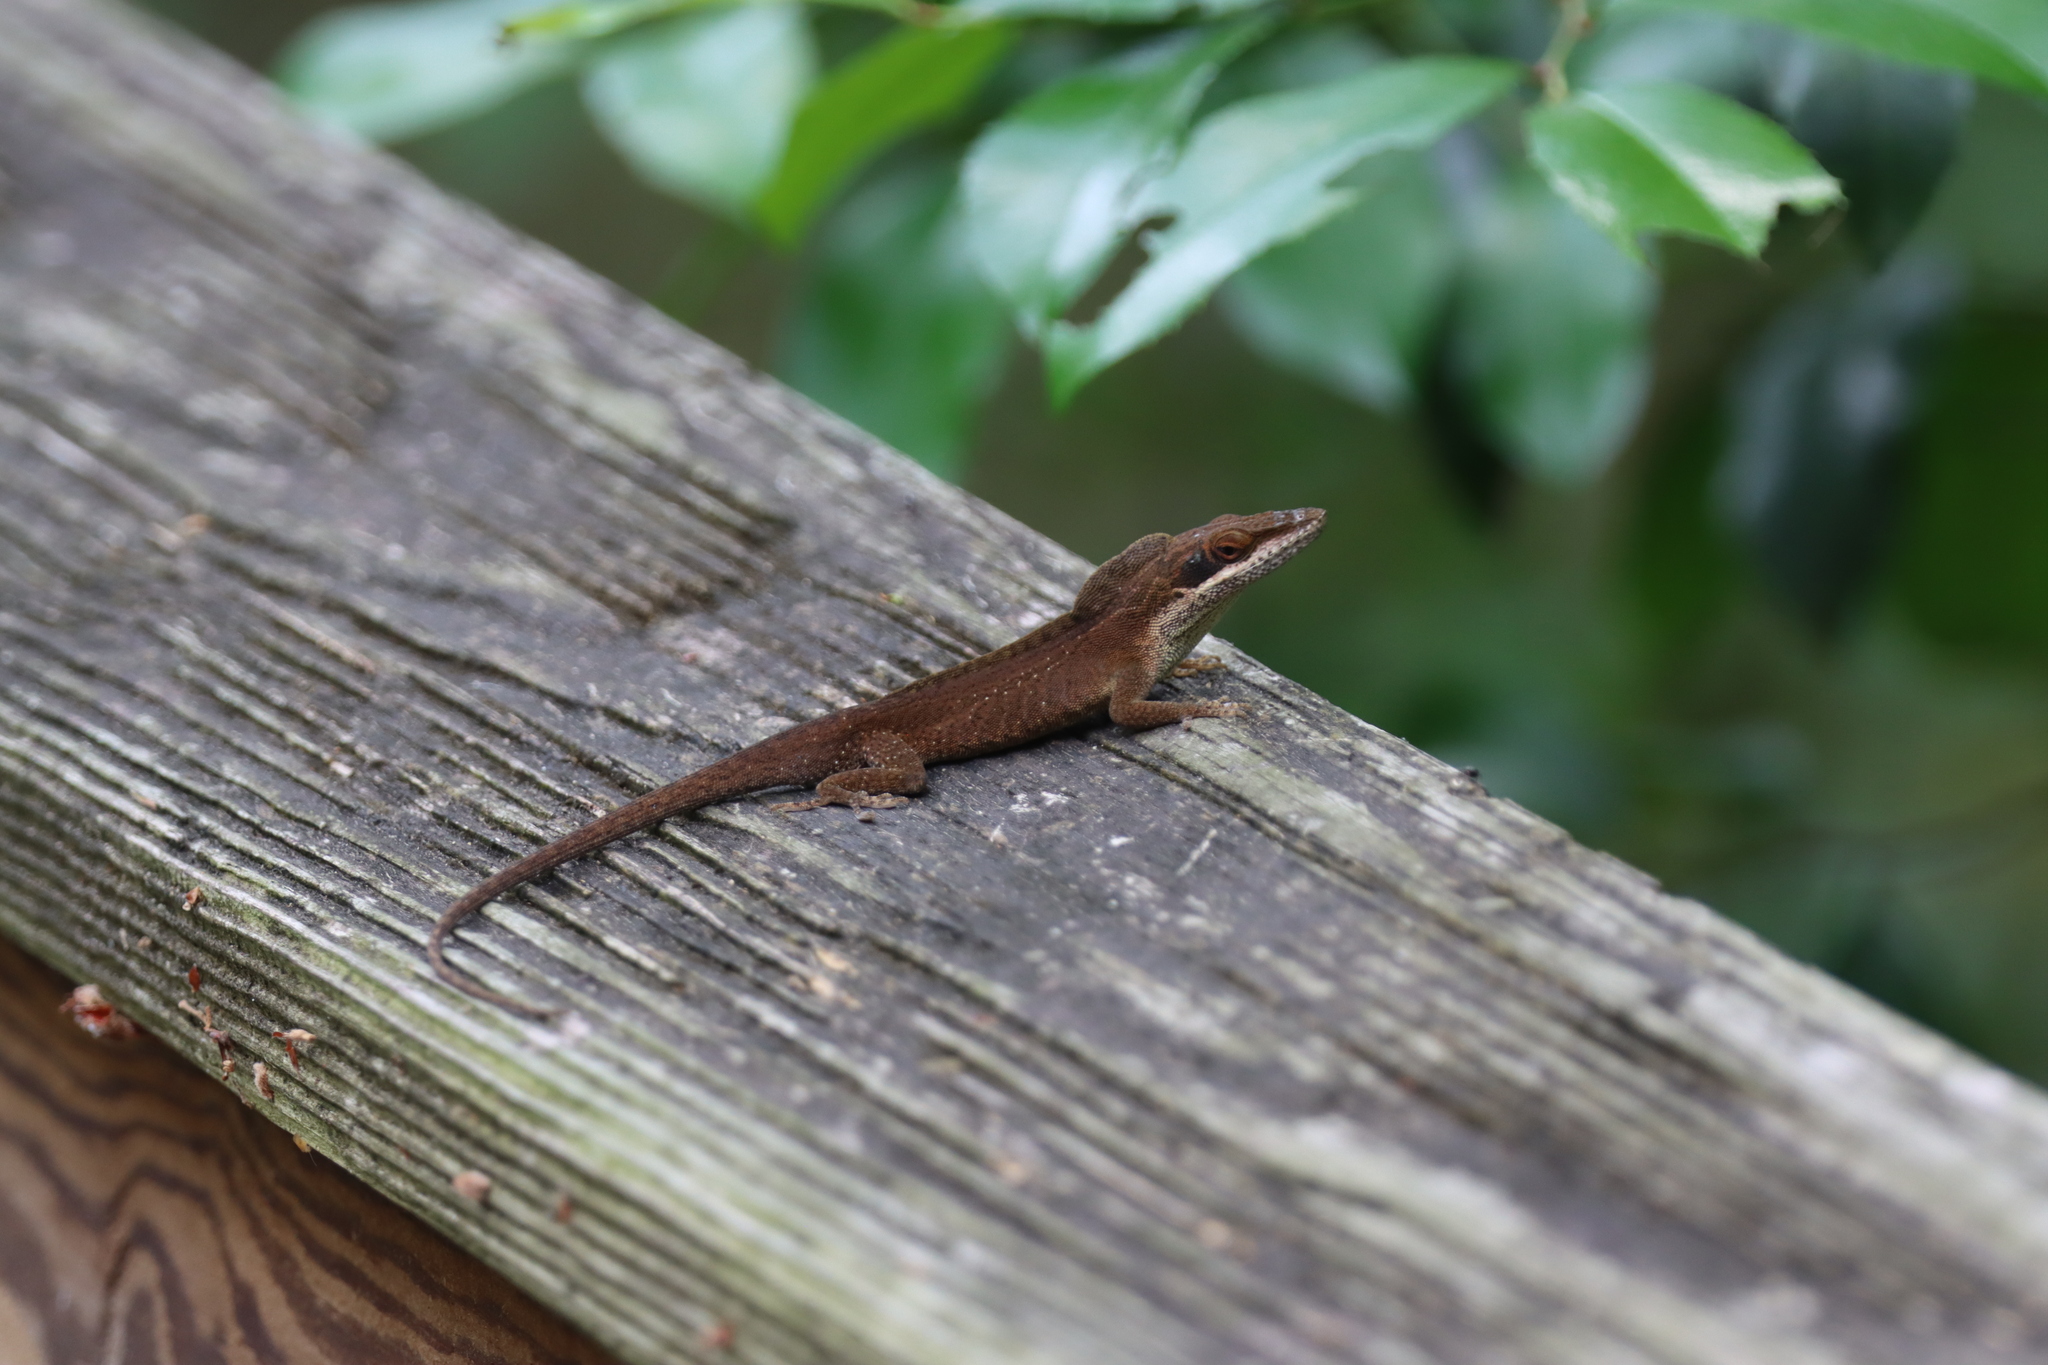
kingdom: Animalia
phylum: Chordata
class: Squamata
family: Dactyloidae
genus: Anolis
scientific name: Anolis carolinensis
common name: Green anole
